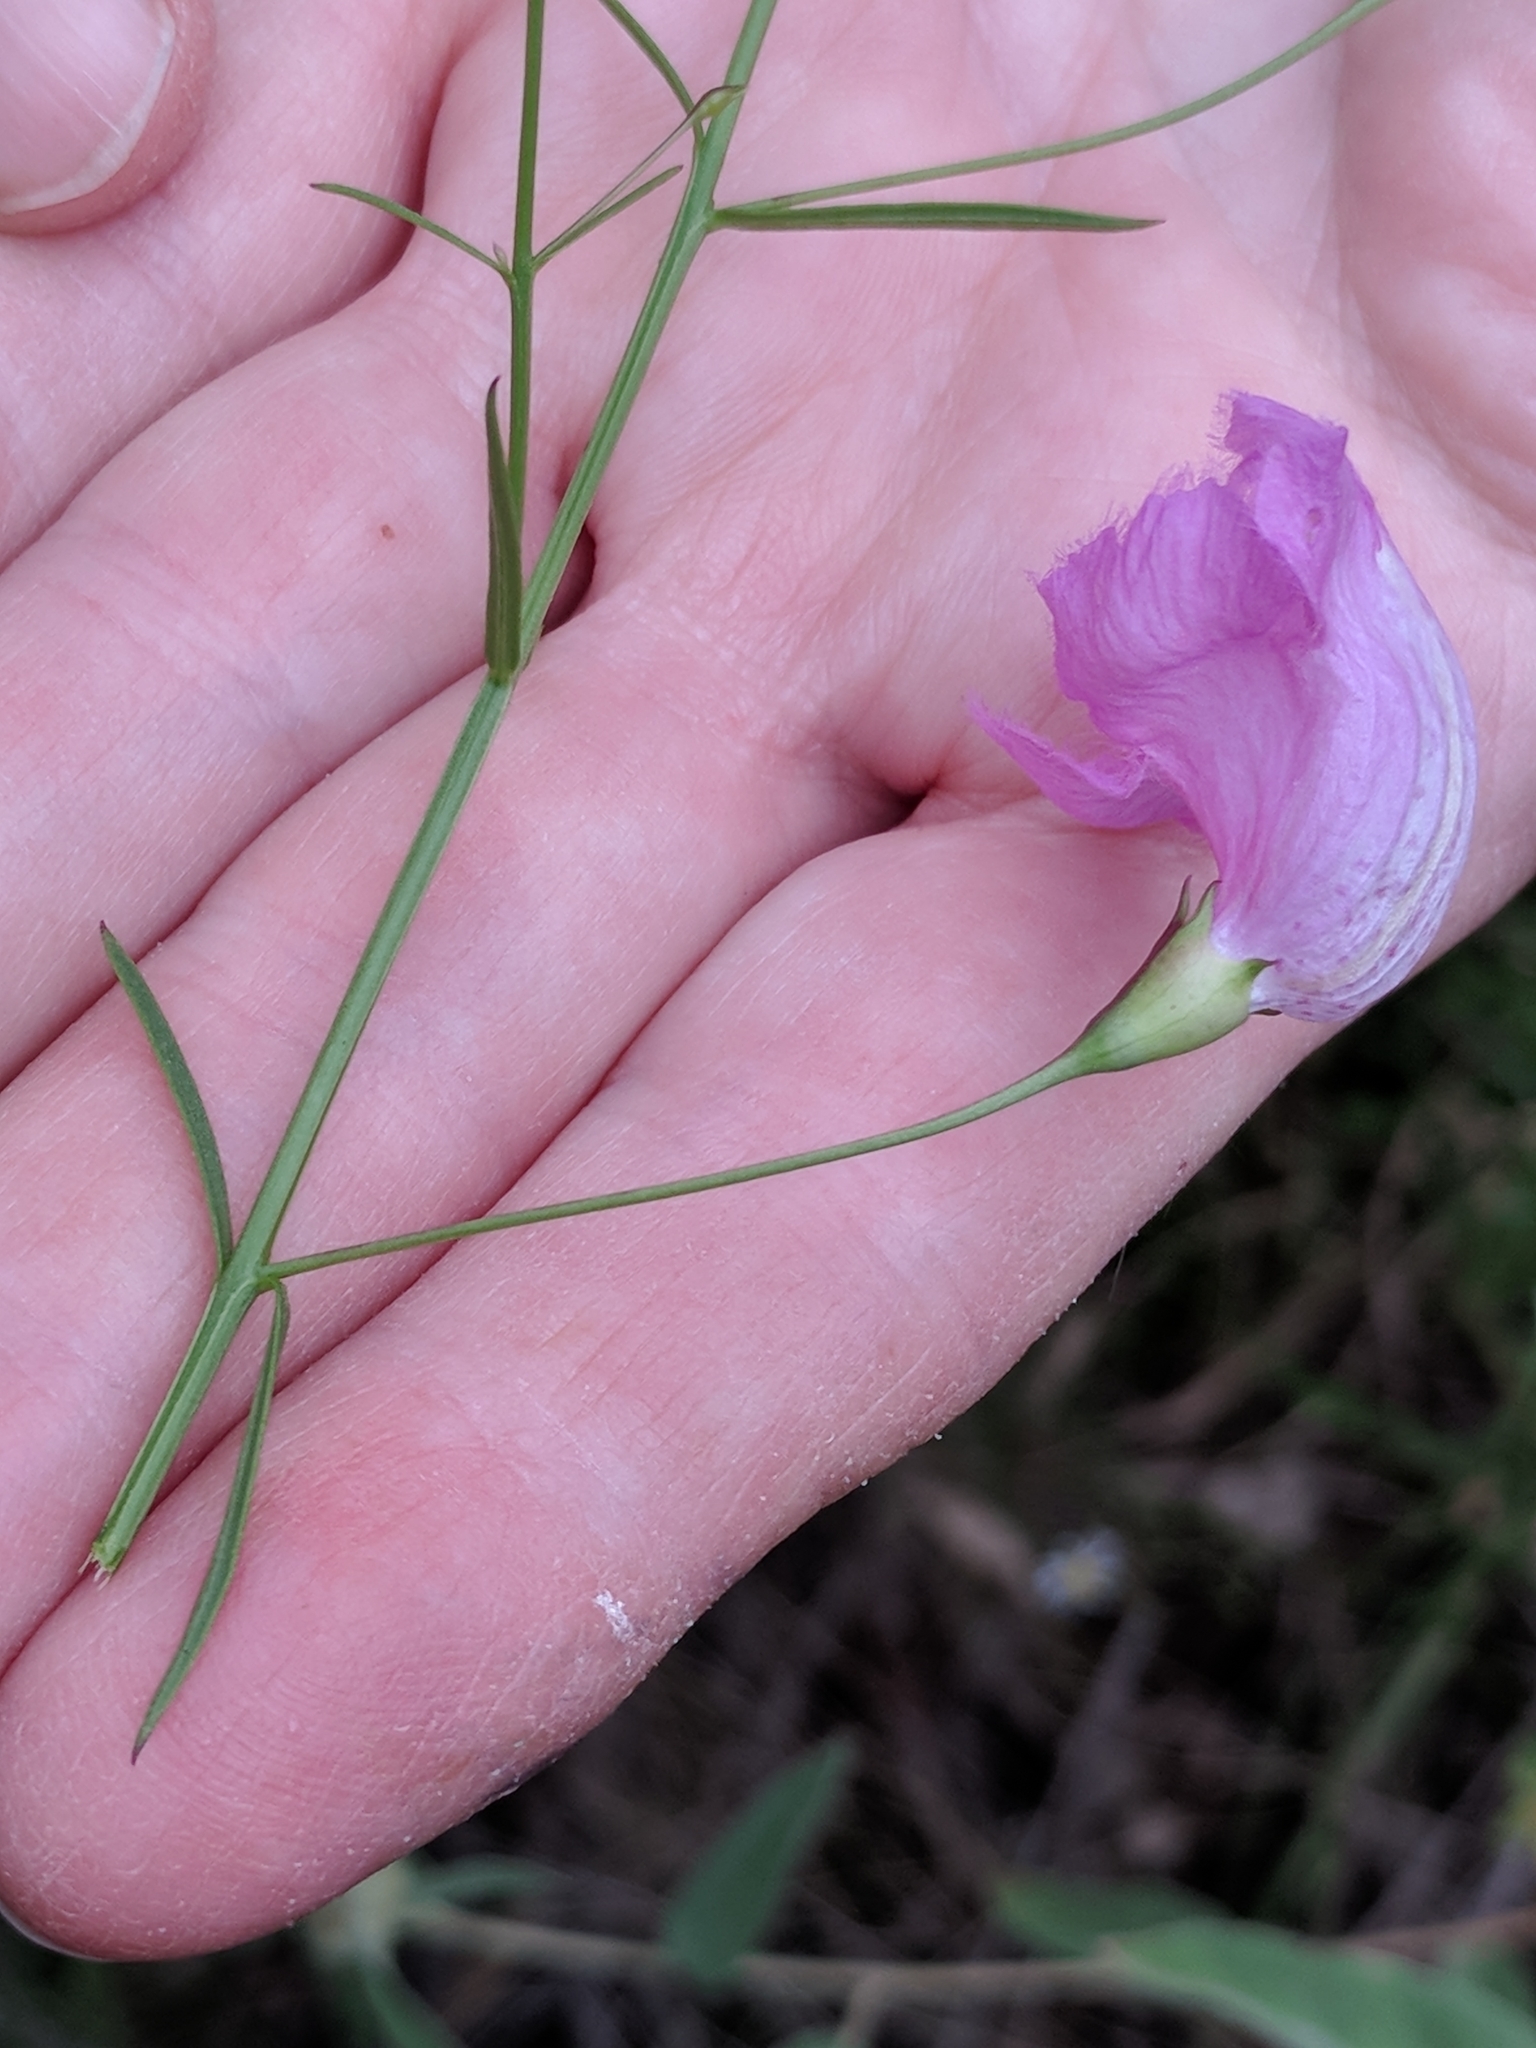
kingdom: Plantae
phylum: Tracheophyta
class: Magnoliopsida
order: Lamiales
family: Orobanchaceae
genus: Agalinis
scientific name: Agalinis strictifolia
